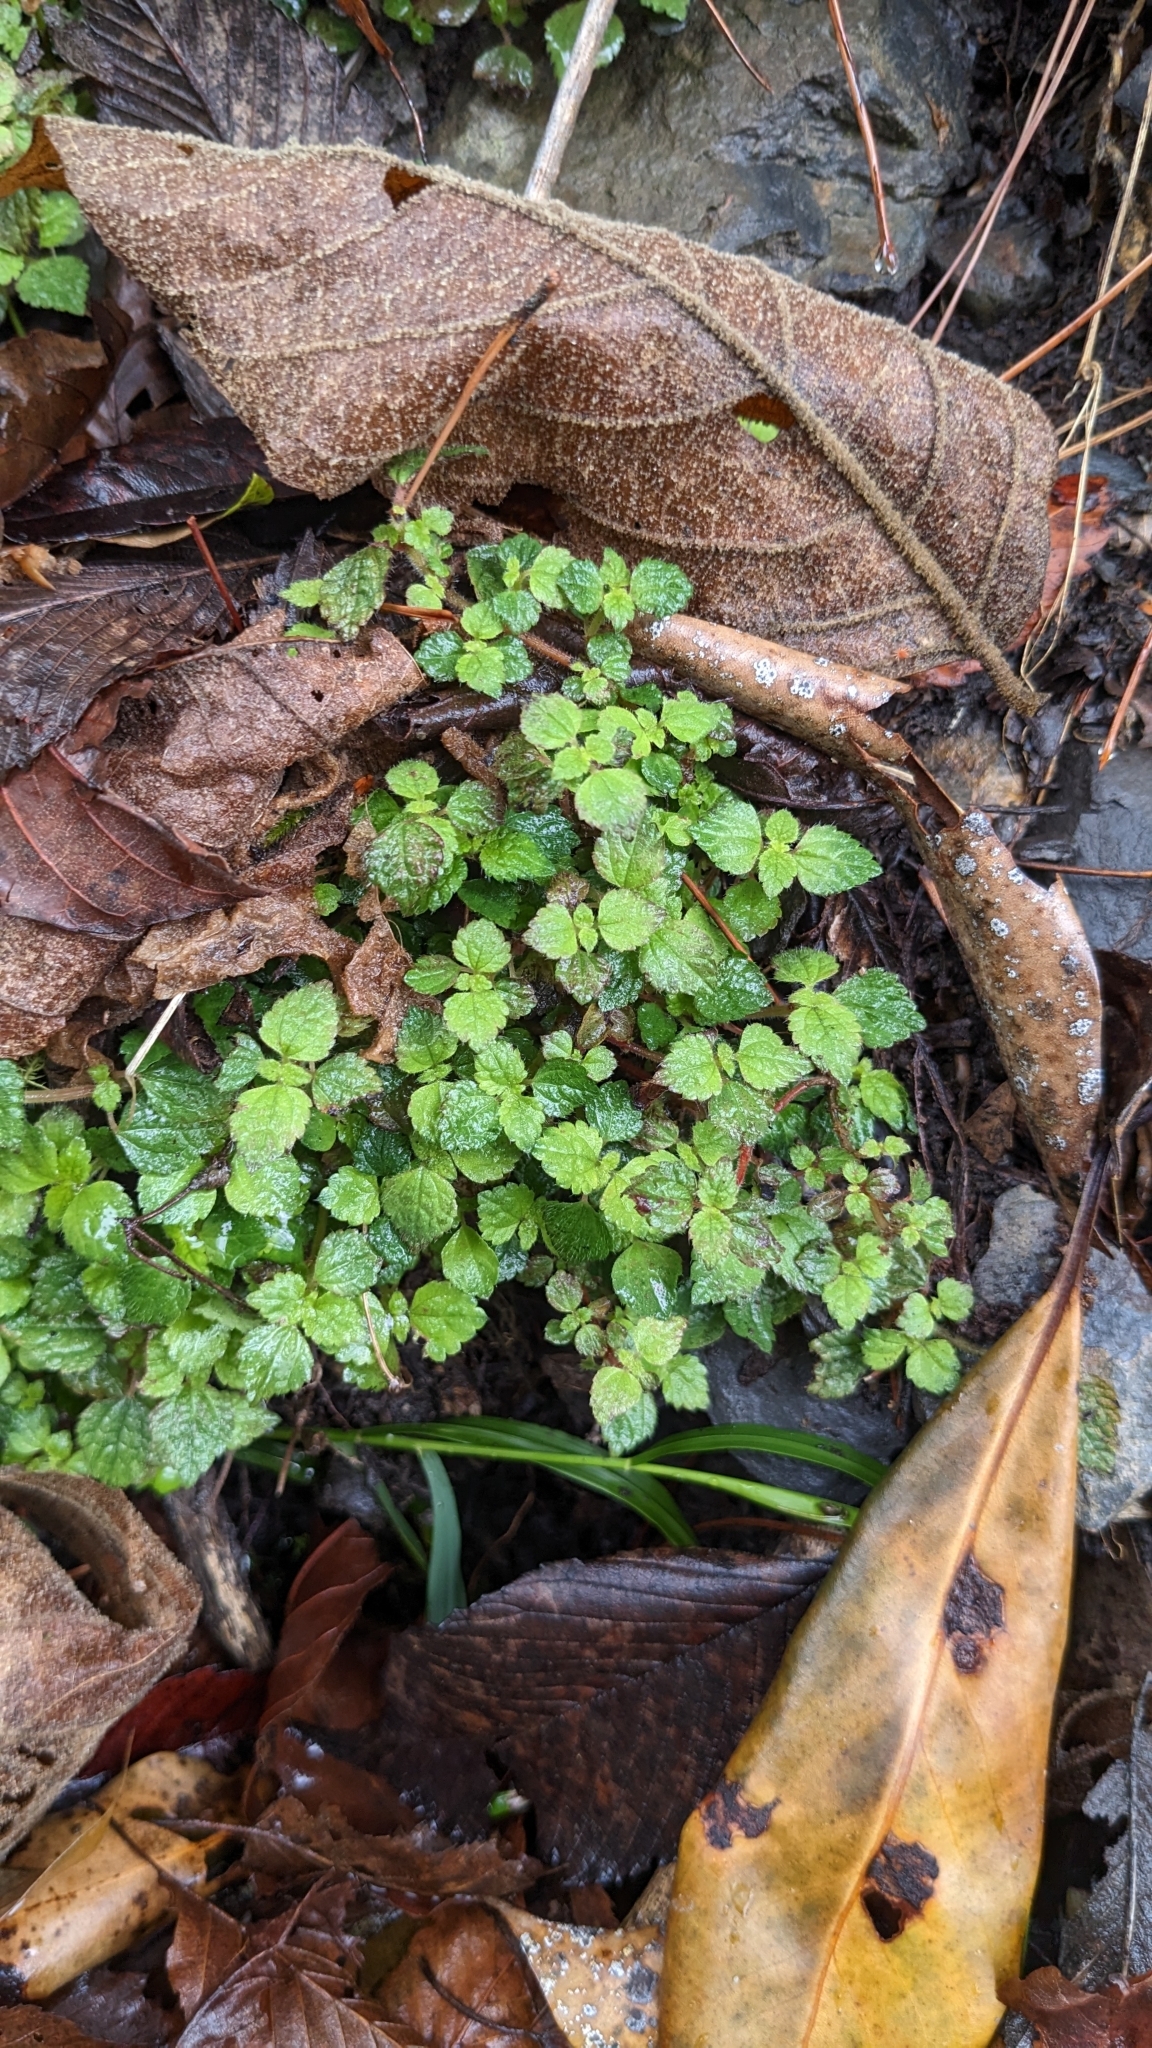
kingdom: Plantae
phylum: Tracheophyta
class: Magnoliopsida
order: Rosales
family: Urticaceae
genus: Chamabainia
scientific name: Chamabainia cuspidata
